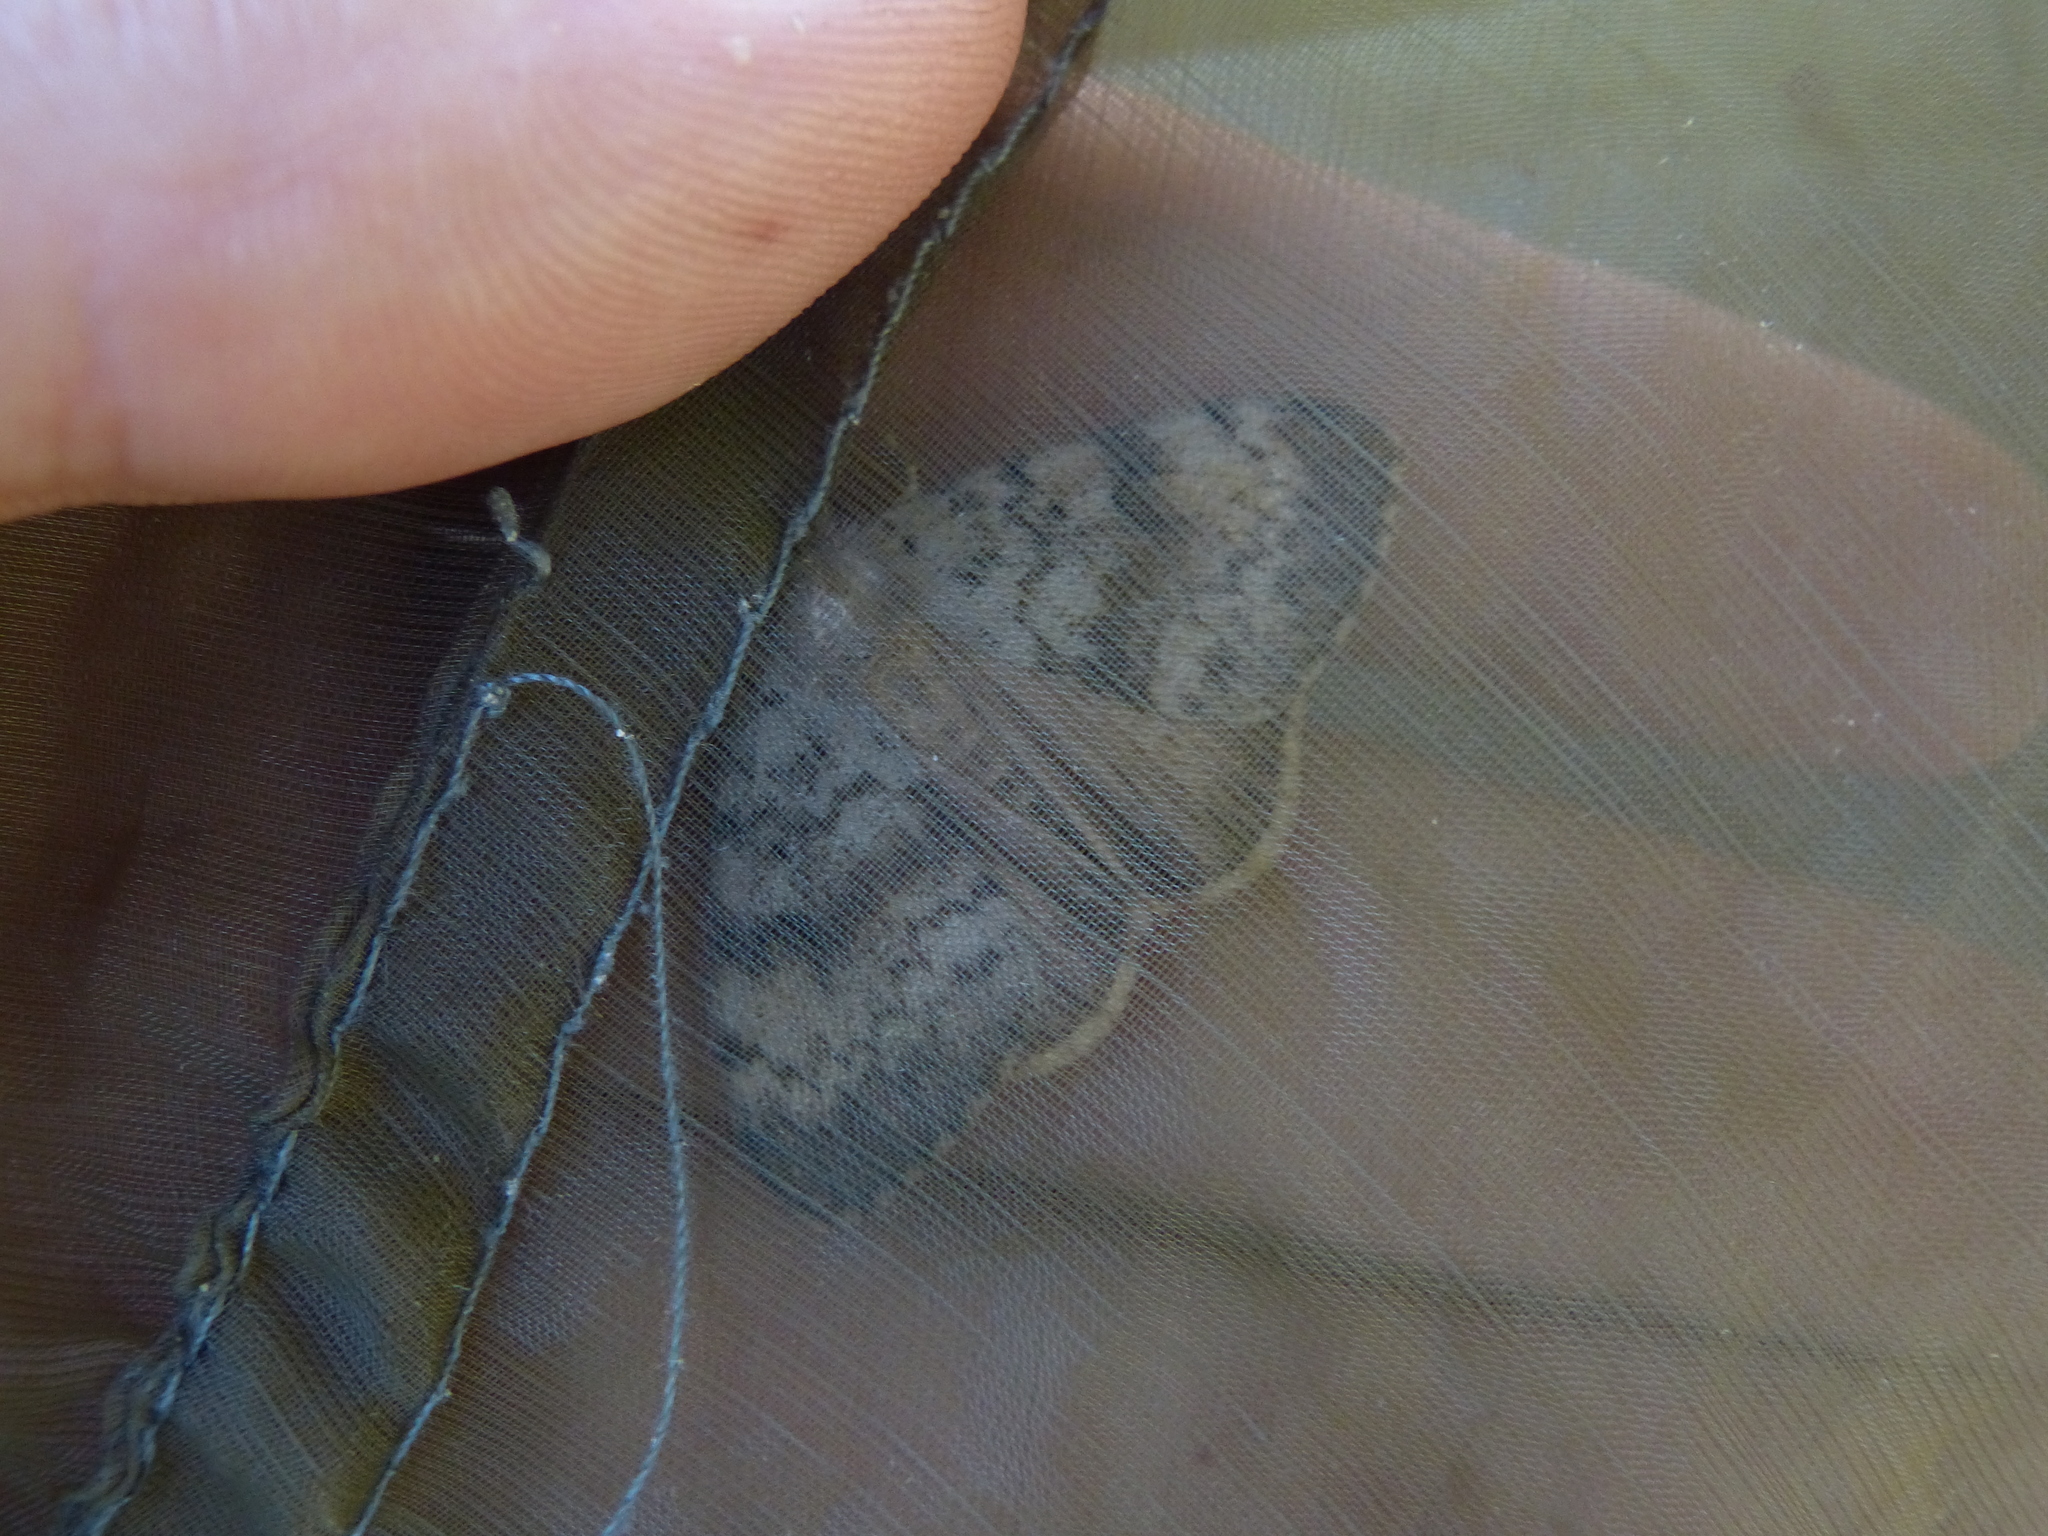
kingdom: Animalia
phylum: Arthropoda
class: Insecta
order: Lepidoptera
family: Erebidae
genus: Lymantria
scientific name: Lymantria dispar
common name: Gypsy moth
